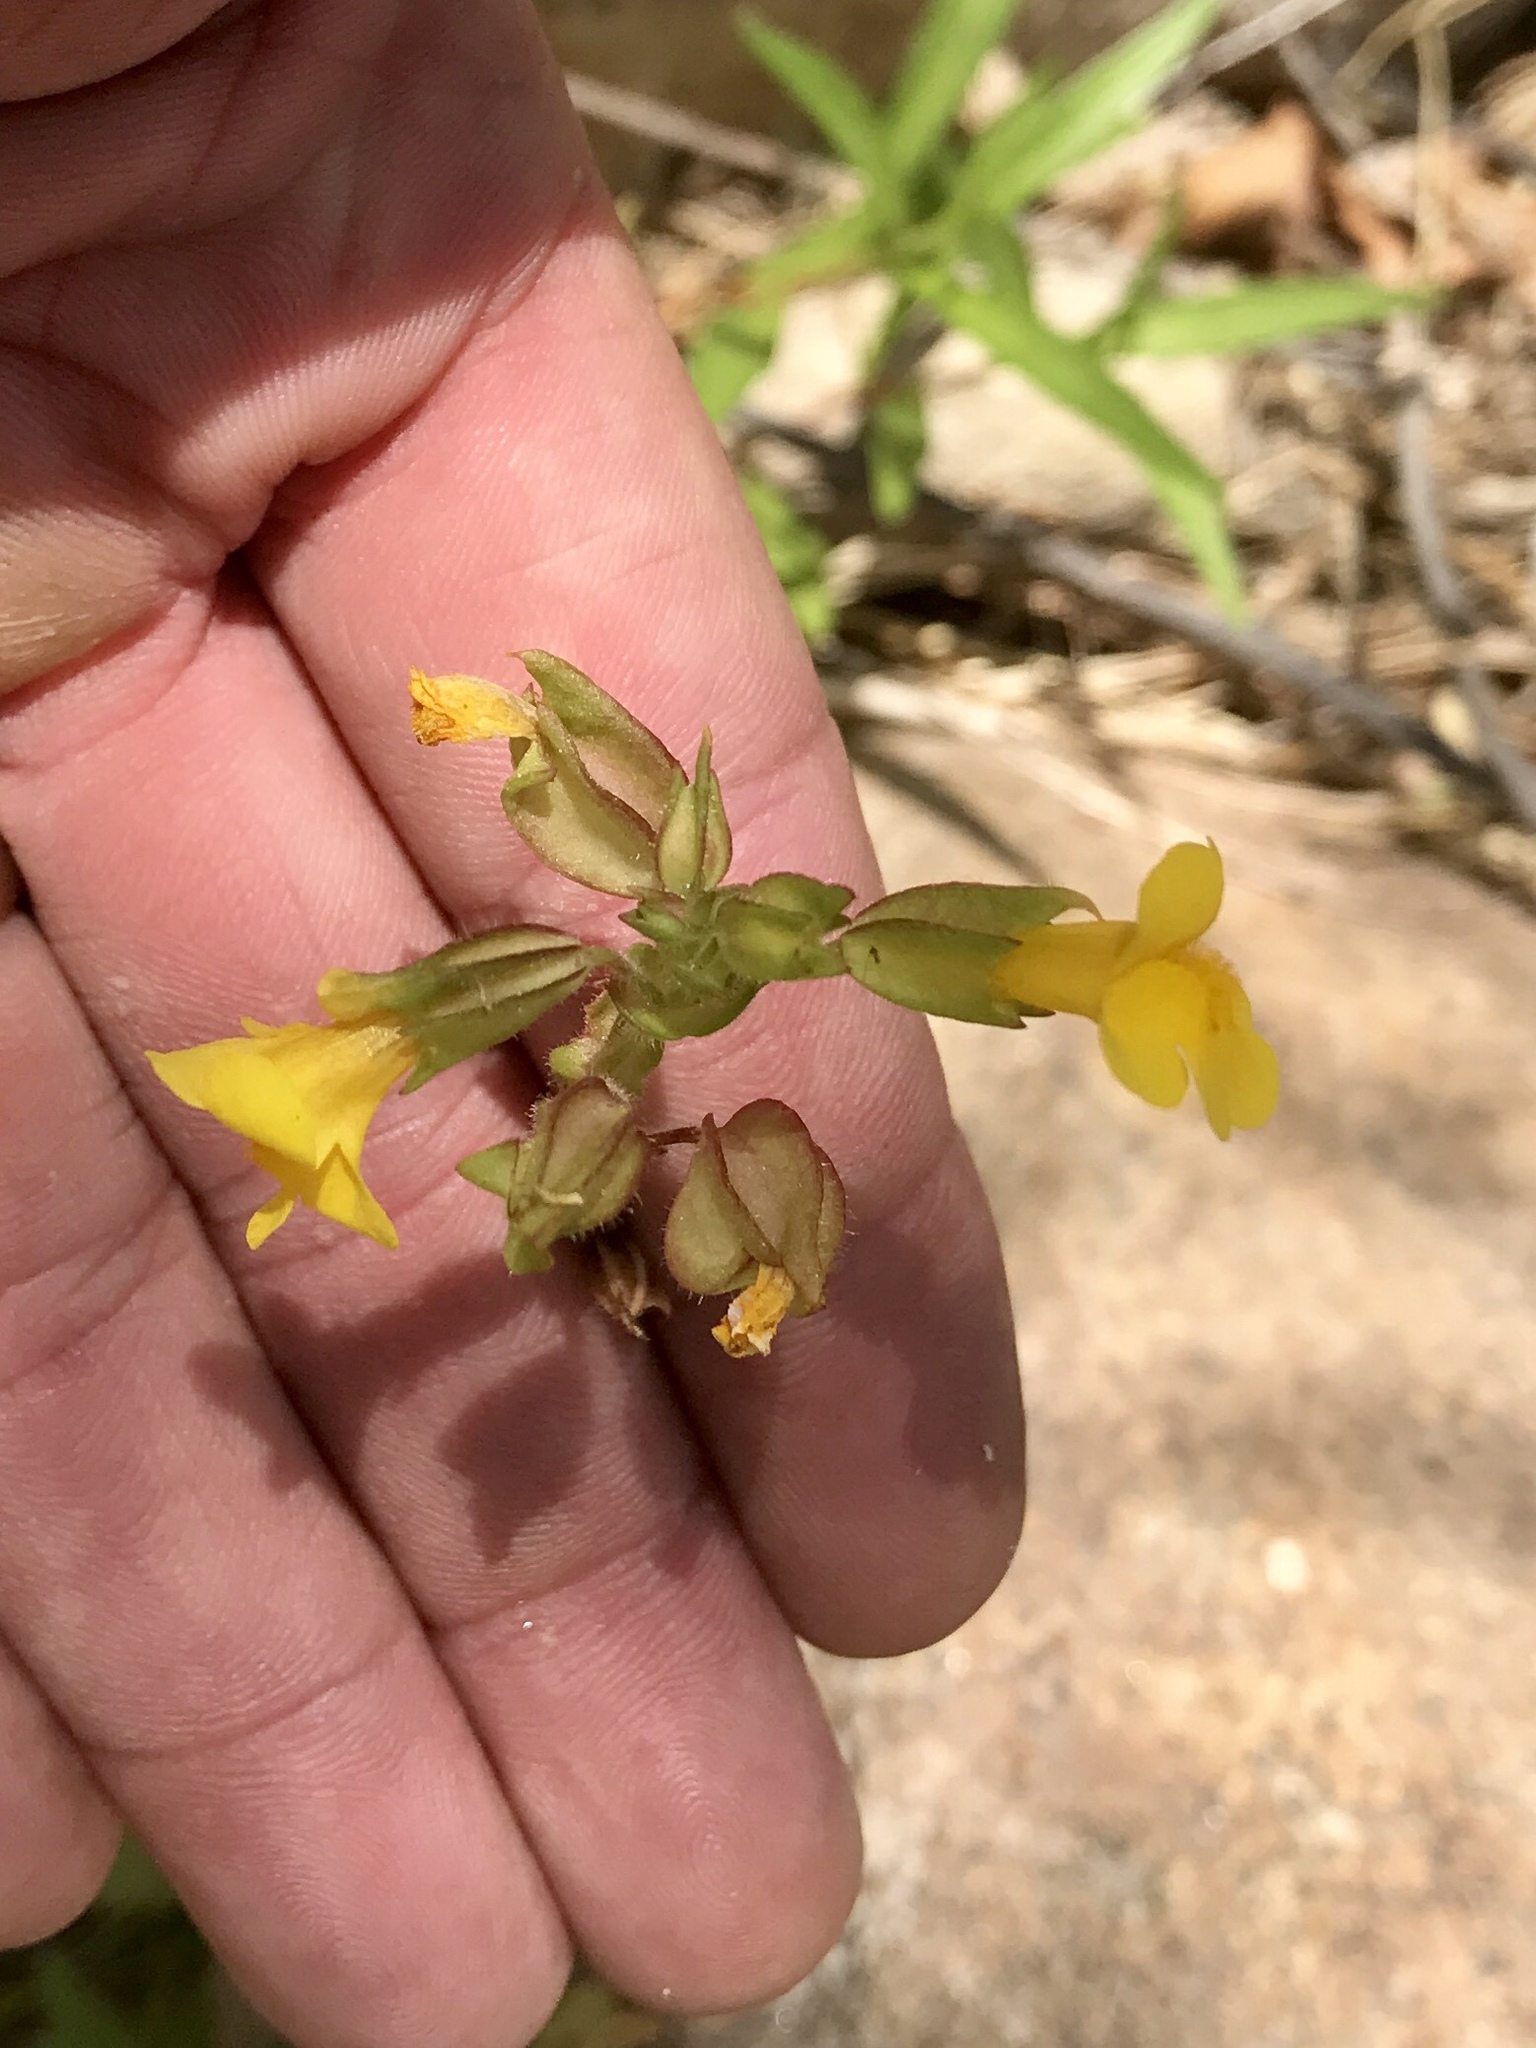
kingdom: Plantae
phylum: Tracheophyta
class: Magnoliopsida
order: Lamiales
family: Phrymaceae
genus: Erythranthe
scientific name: Erythranthe guttata
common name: Monkeyflower
